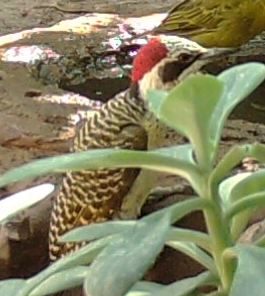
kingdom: Animalia
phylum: Chordata
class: Aves
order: Piciformes
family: Picidae
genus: Campethera
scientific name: Campethera bennettii
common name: Bennett's woodpecker
